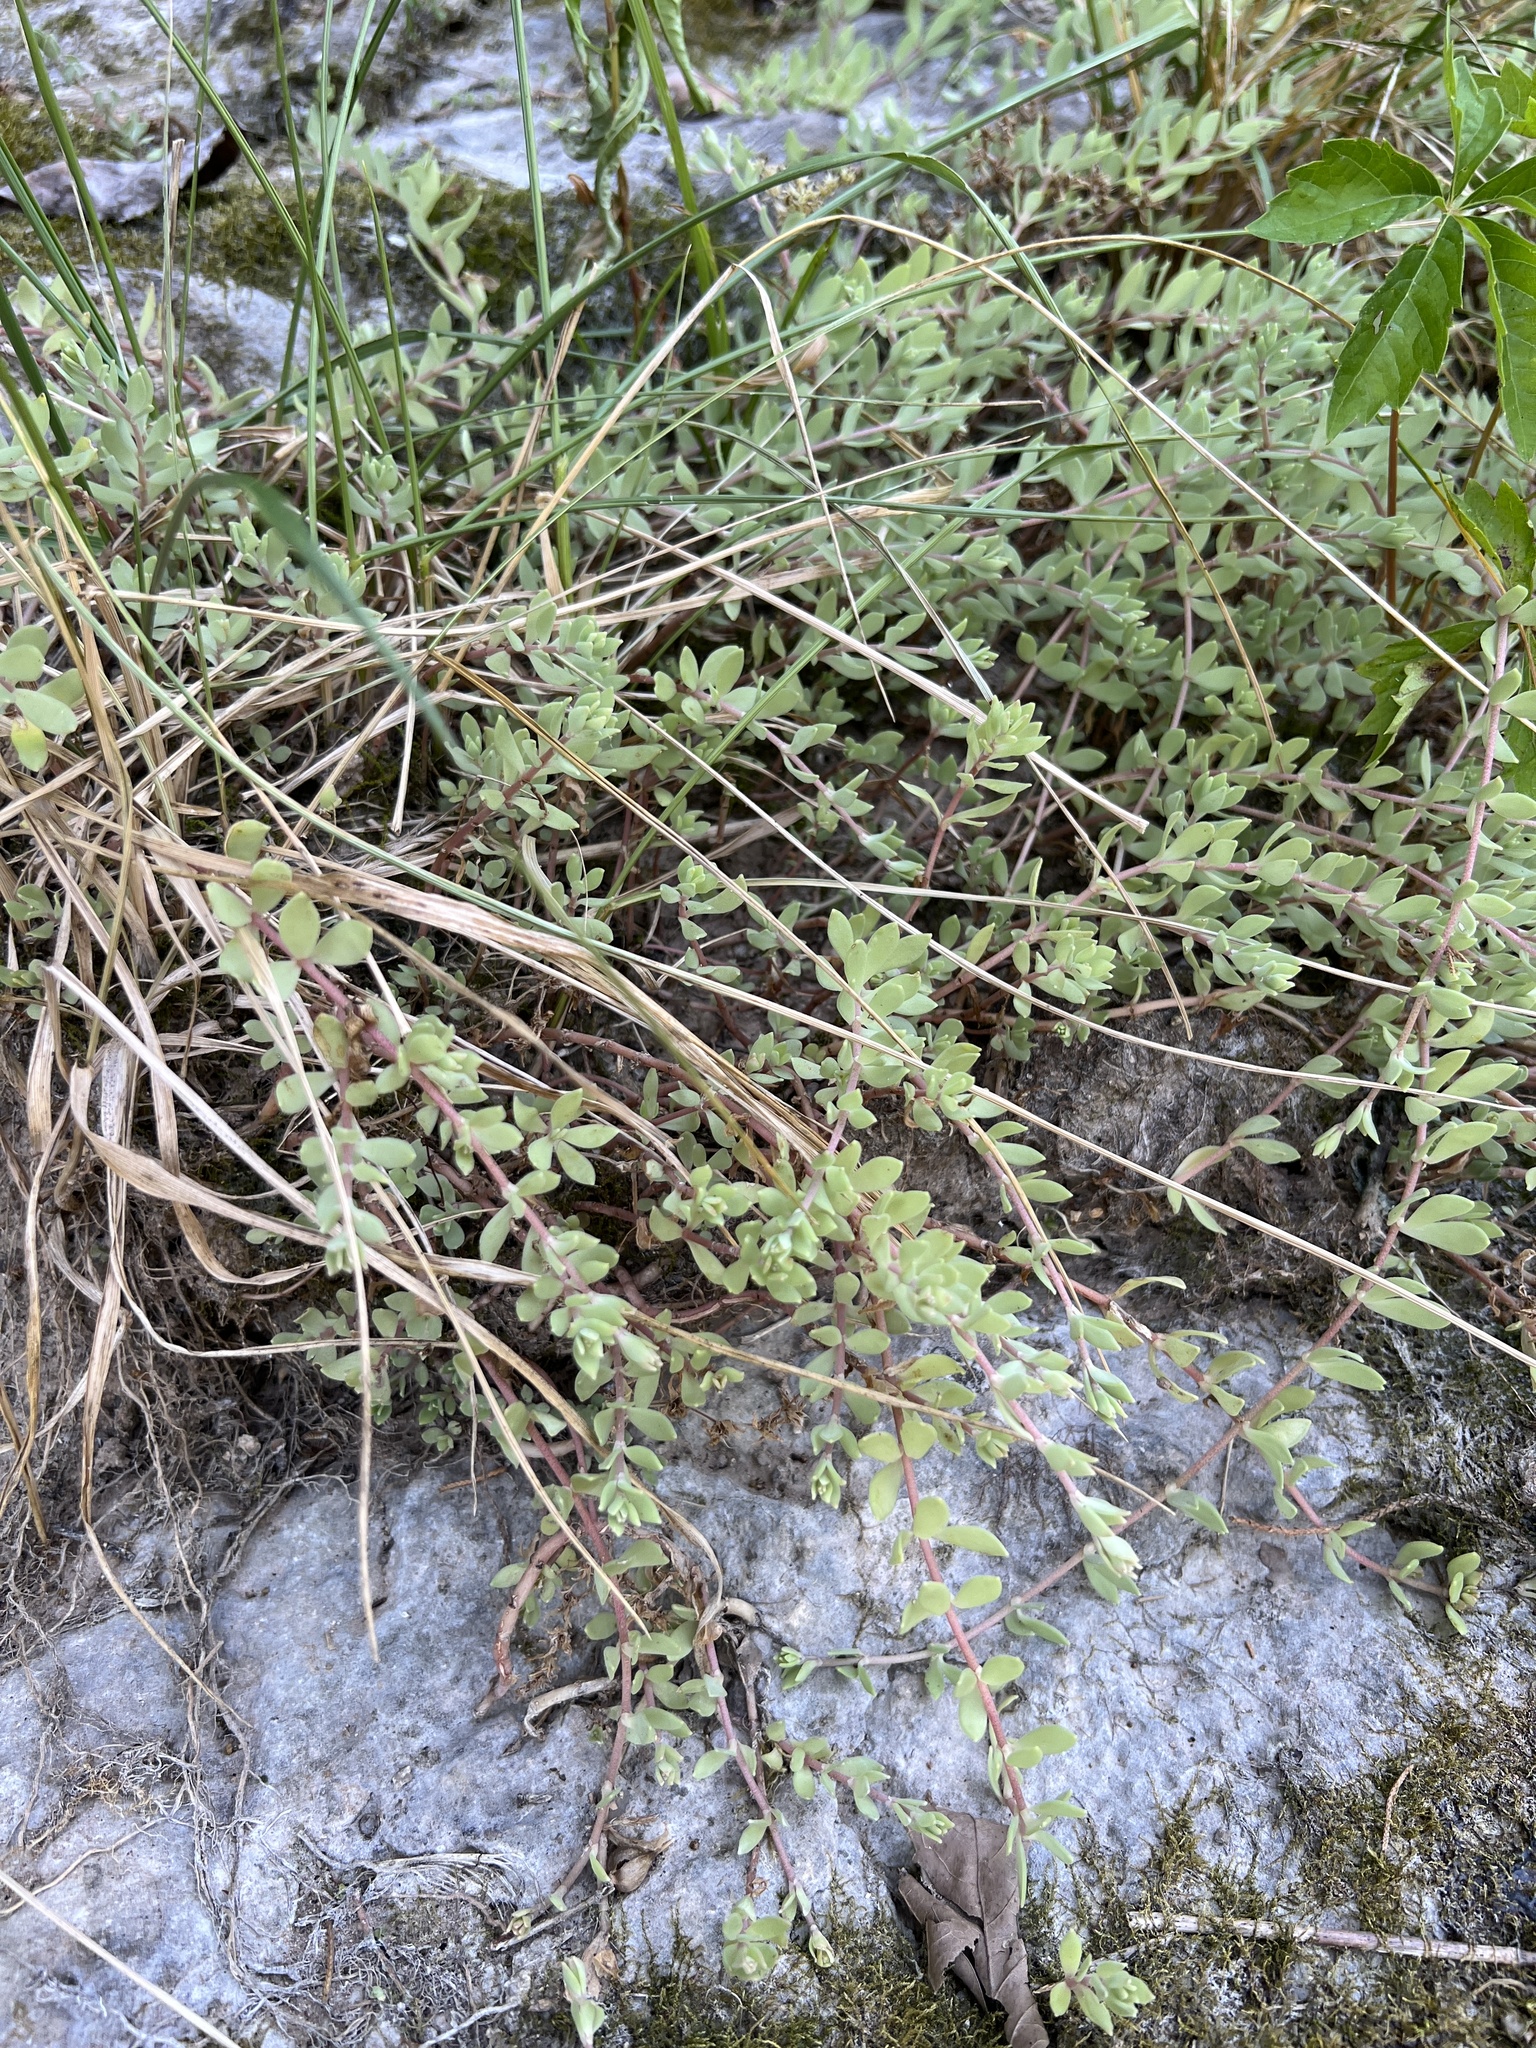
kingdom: Plantae
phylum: Tracheophyta
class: Magnoliopsida
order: Saxifragales
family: Crassulaceae
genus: Sedum
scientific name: Sedum sarmentosum
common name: Stringy stonecrop
